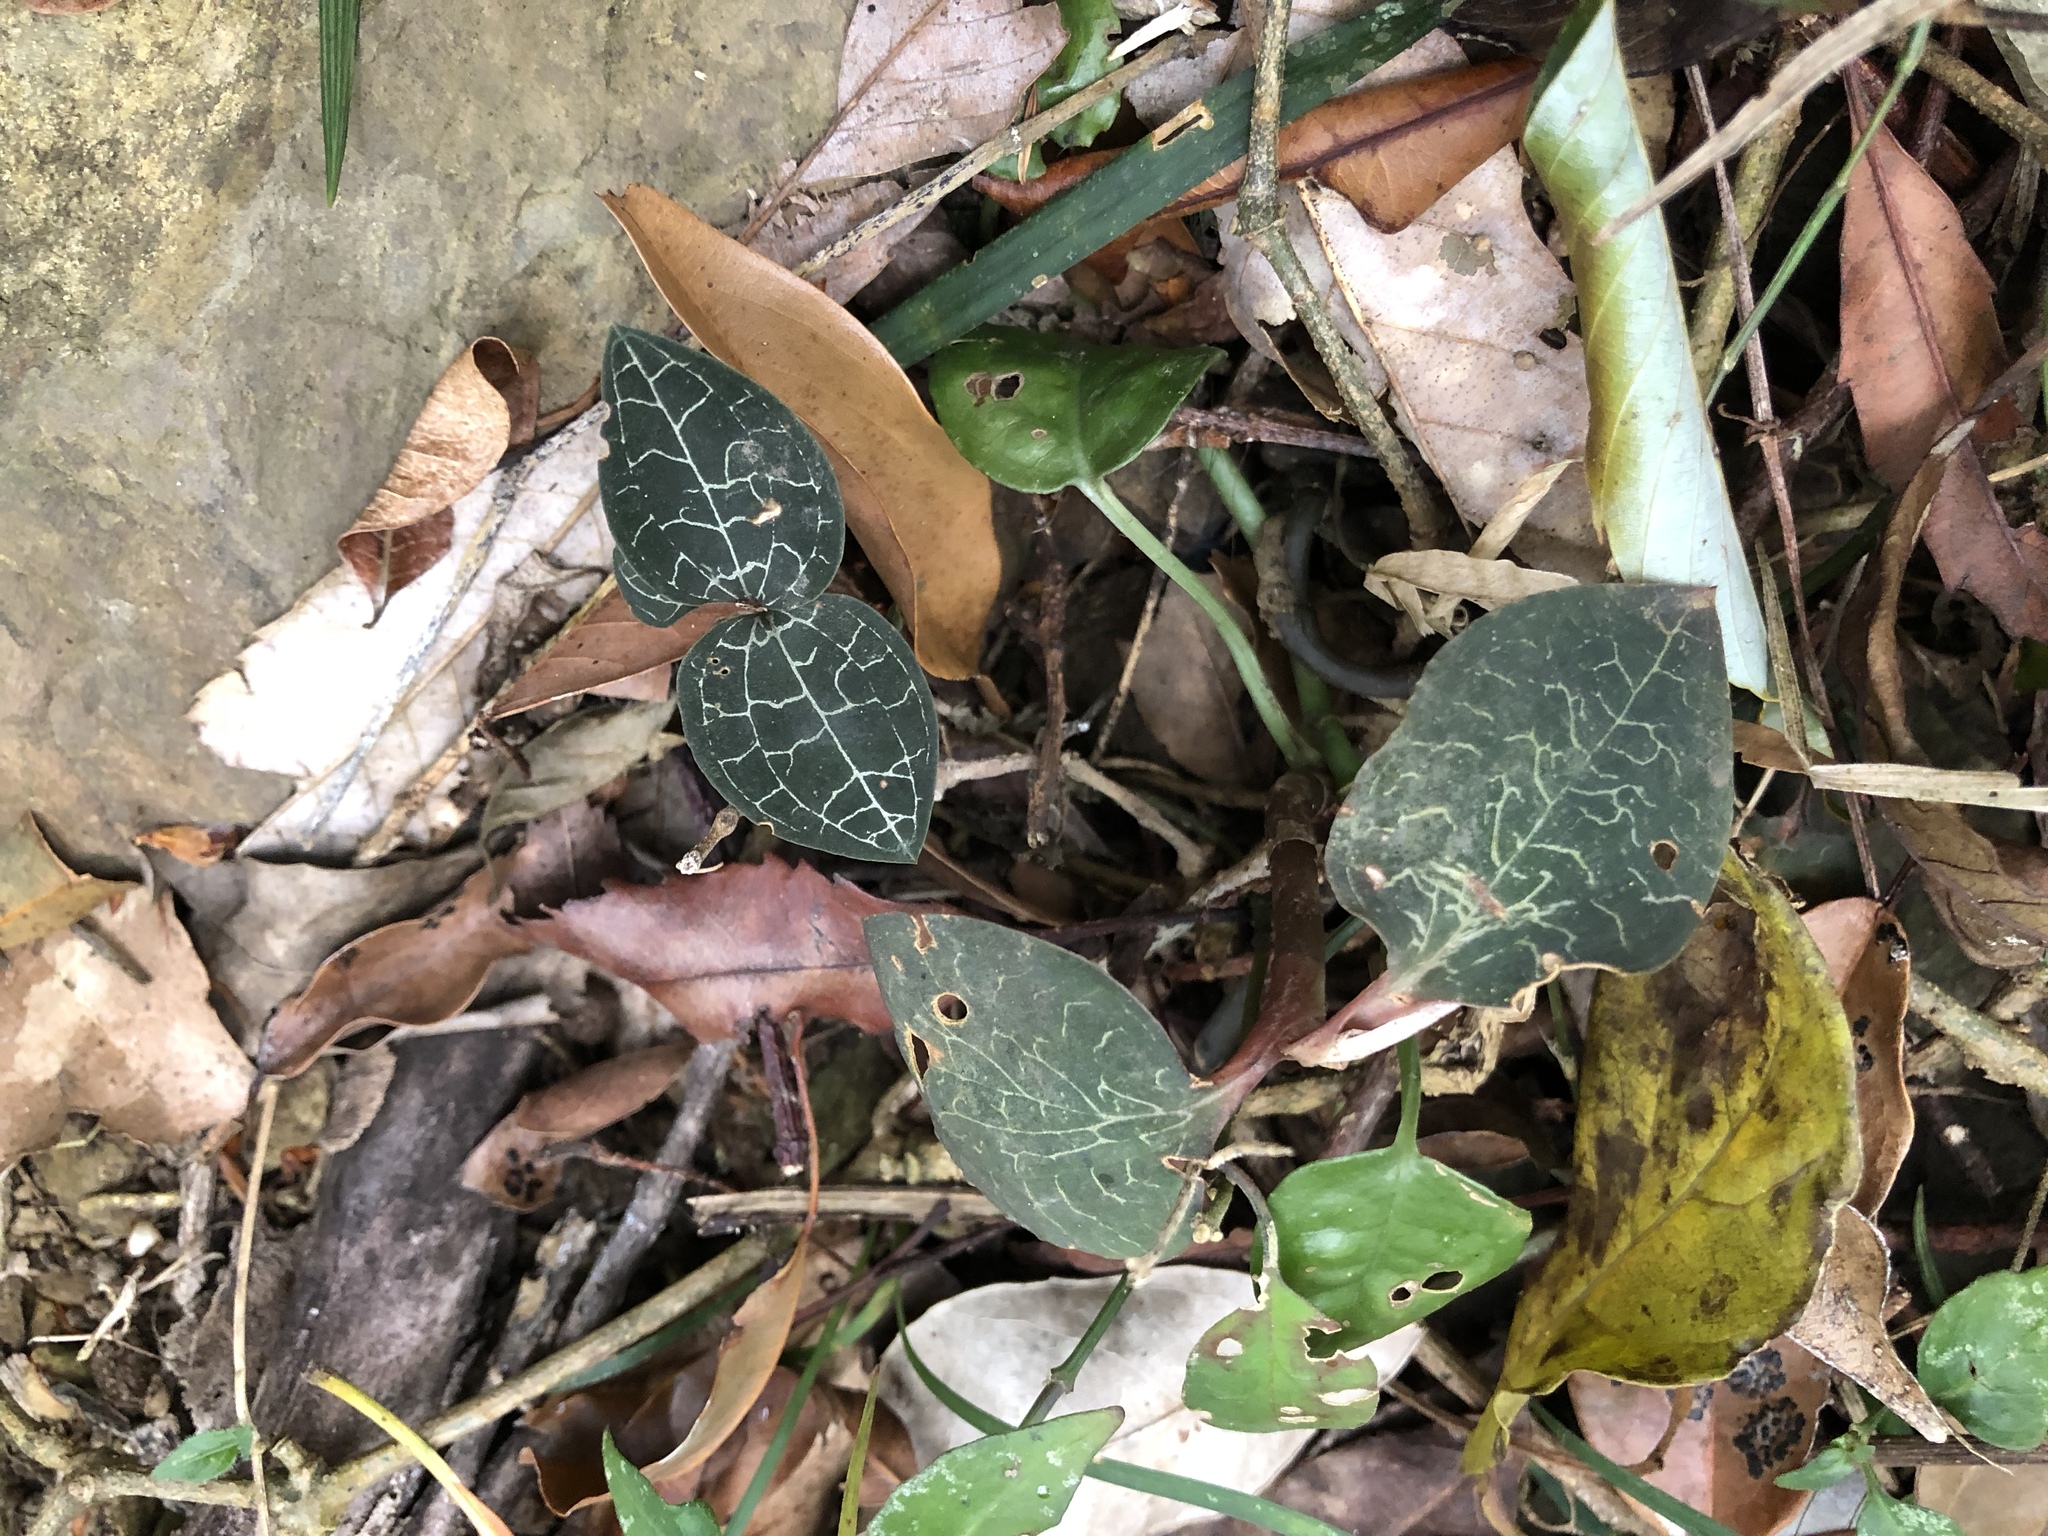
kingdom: Plantae
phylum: Tracheophyta
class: Liliopsida
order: Asparagales
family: Orchidaceae
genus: Anoectochilus
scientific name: Anoectochilus formosanus
